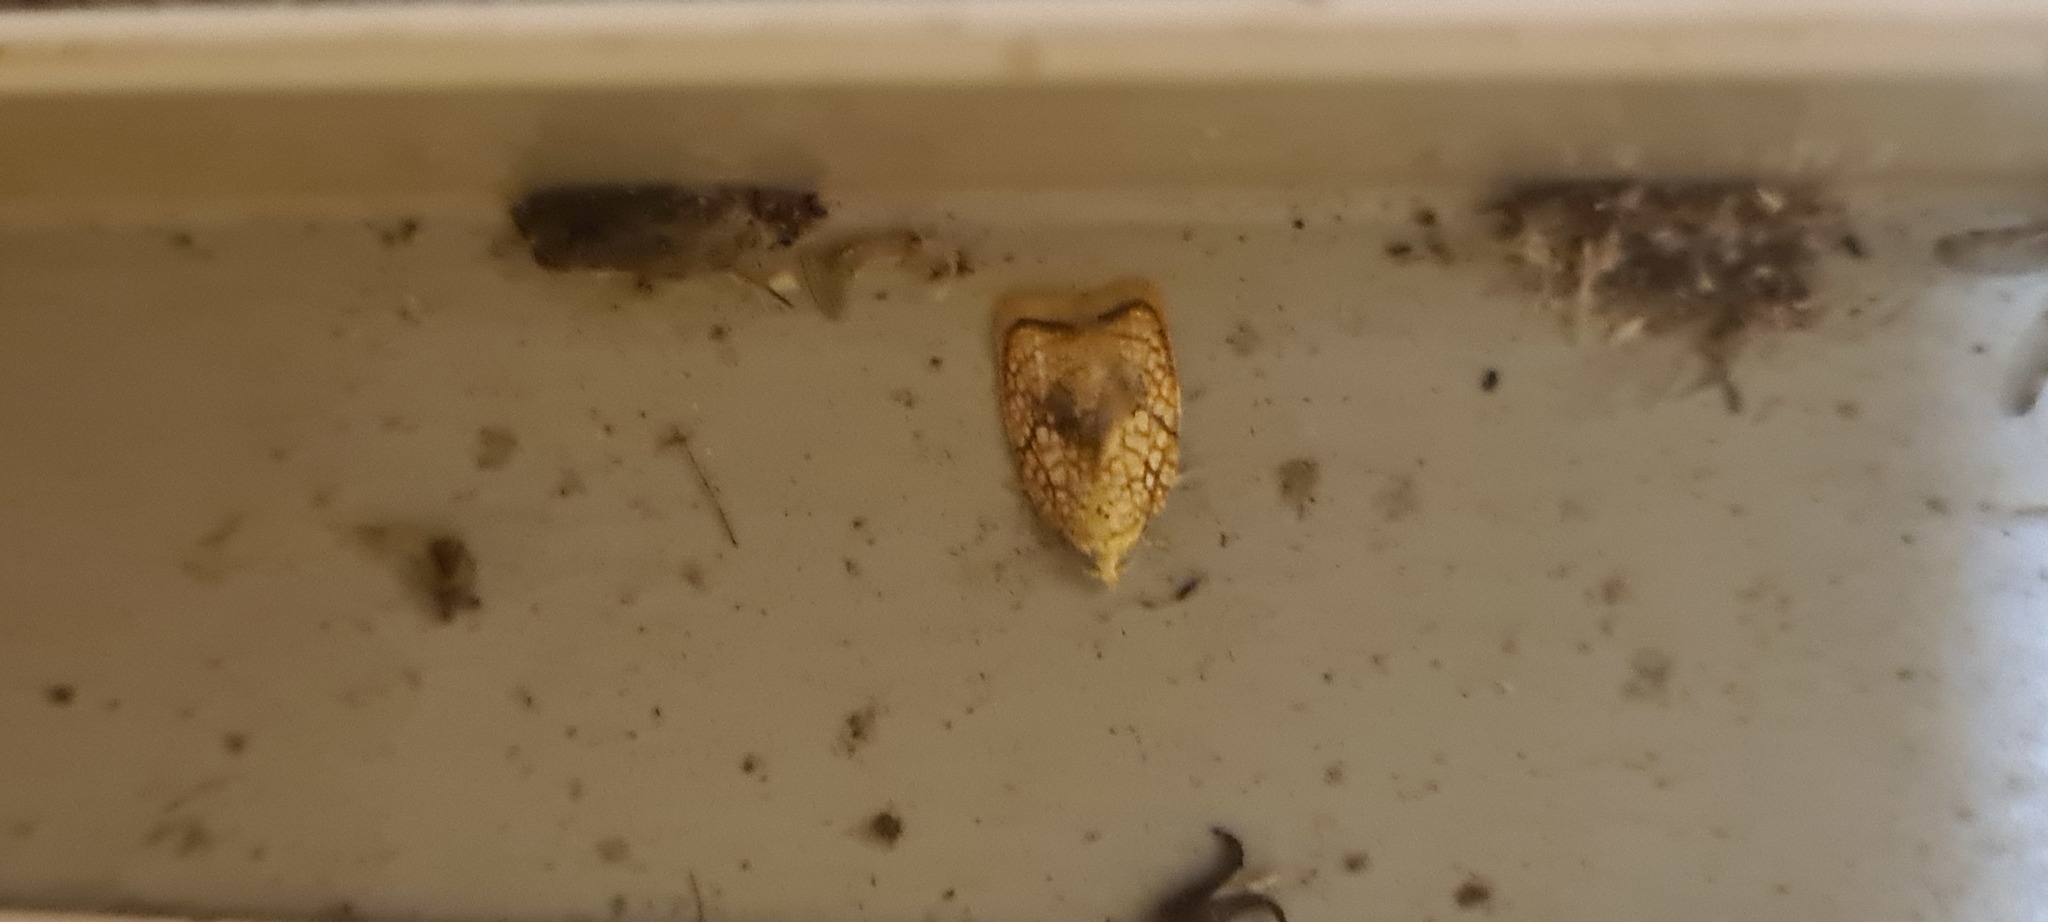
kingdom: Animalia
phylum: Arthropoda
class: Insecta
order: Lepidoptera
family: Tortricidae
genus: Acleris
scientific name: Acleris forsskaleana
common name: Maple button
